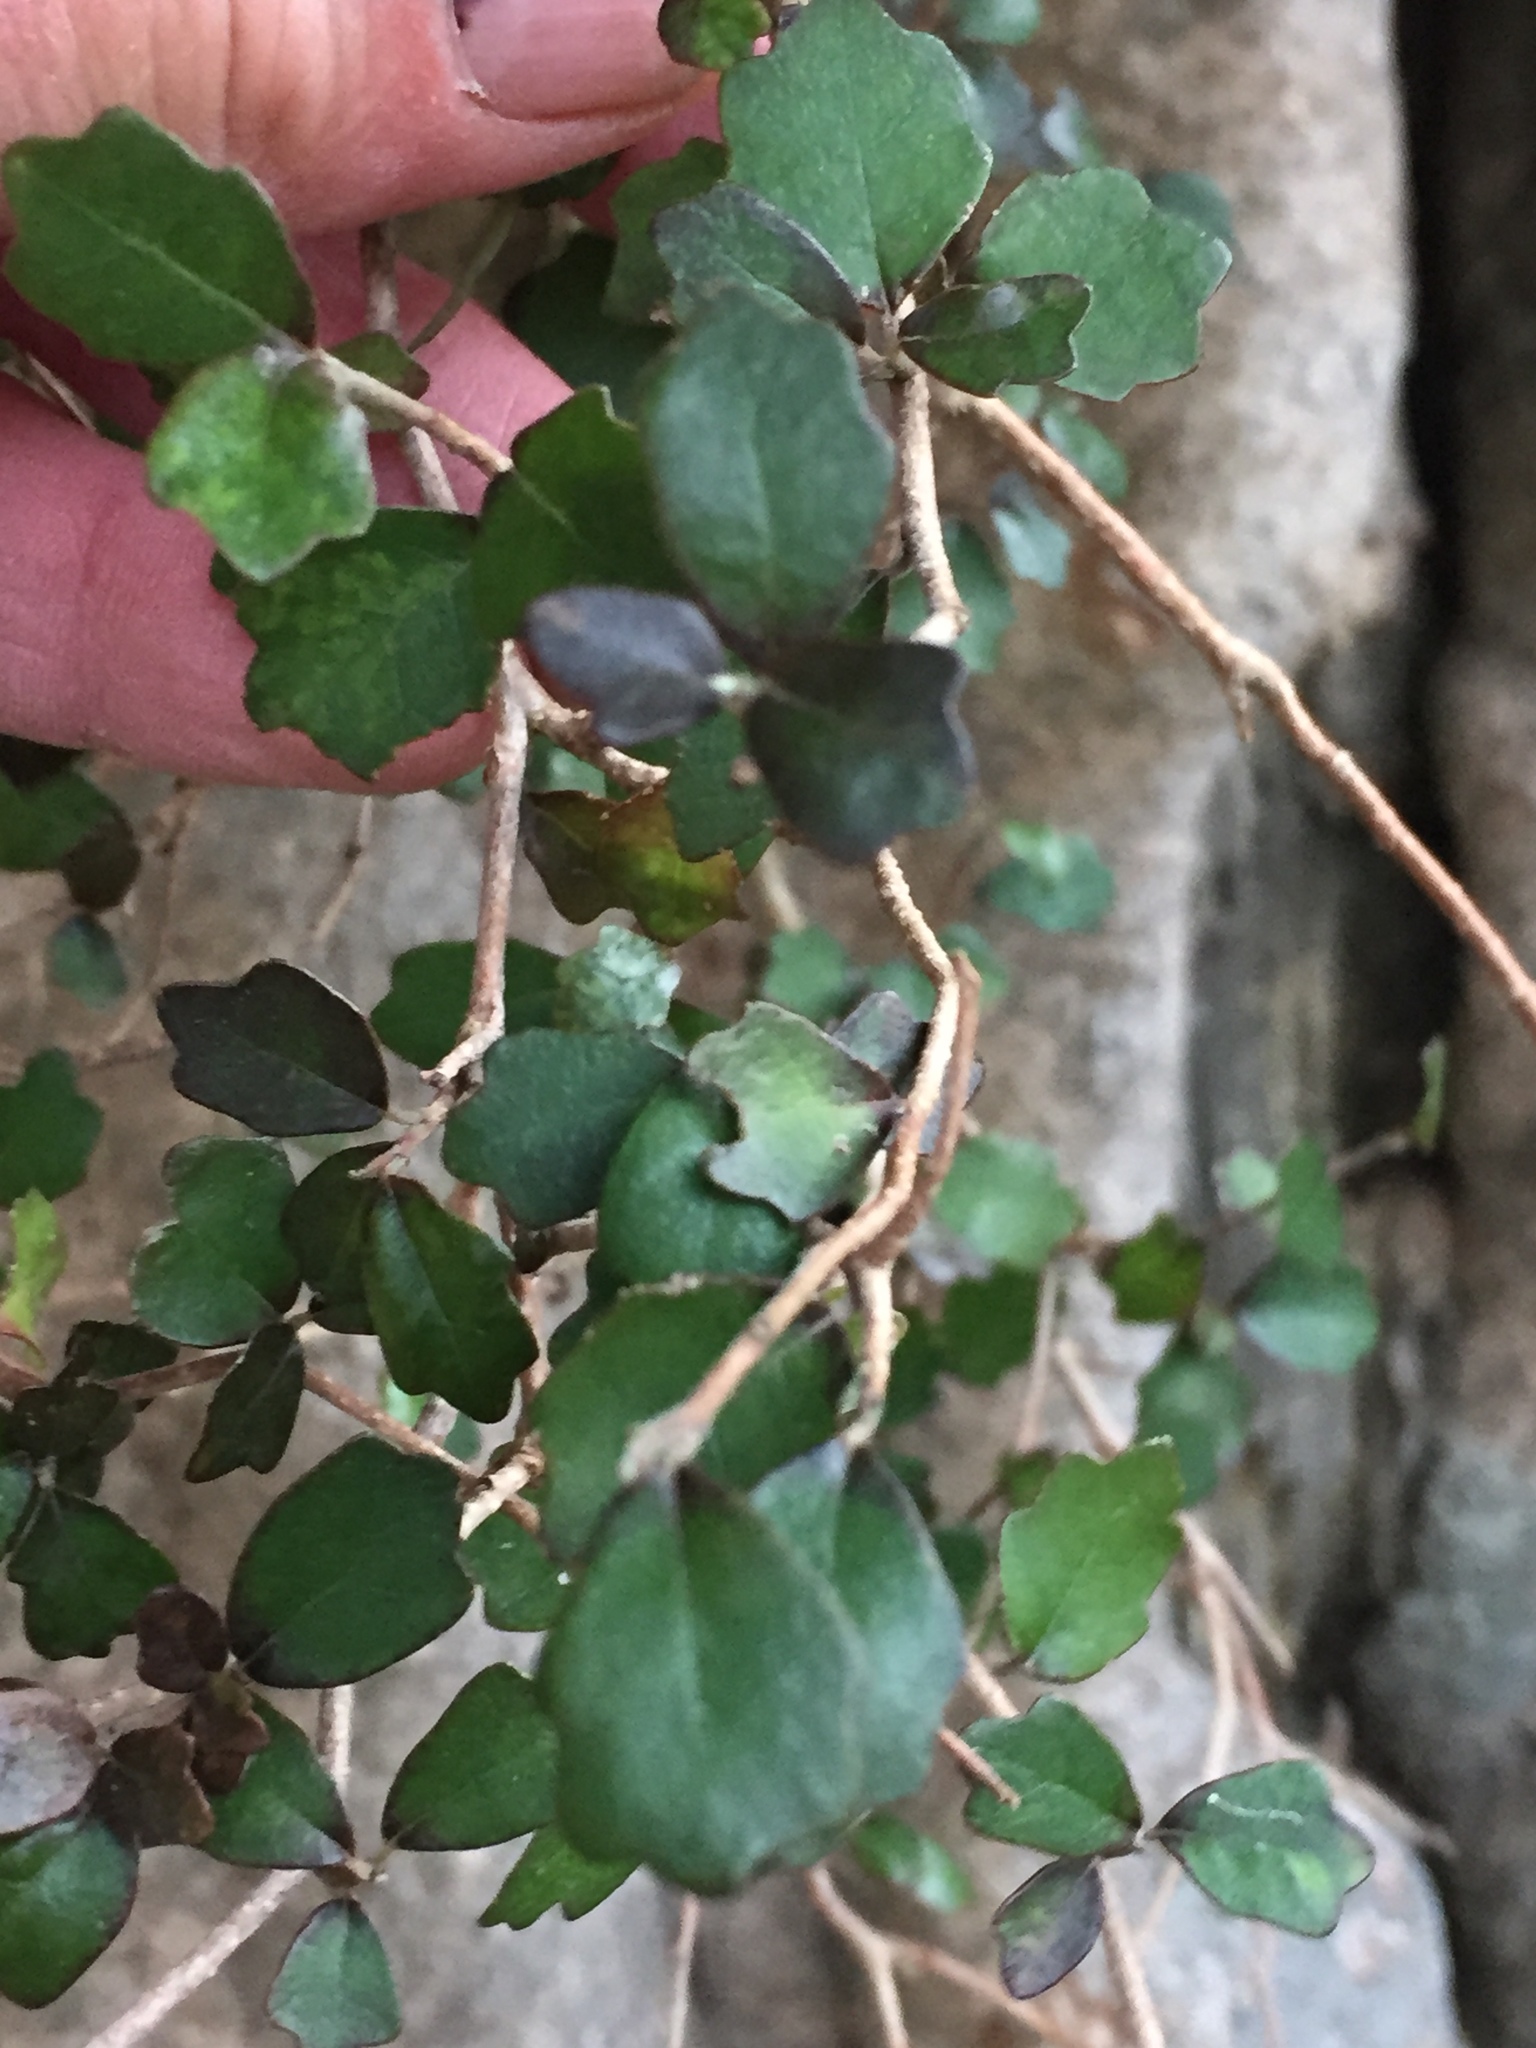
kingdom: Plantae
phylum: Tracheophyta
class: Magnoliopsida
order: Apiales
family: Pennantiaceae
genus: Pennantia
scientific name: Pennantia corymbosa
